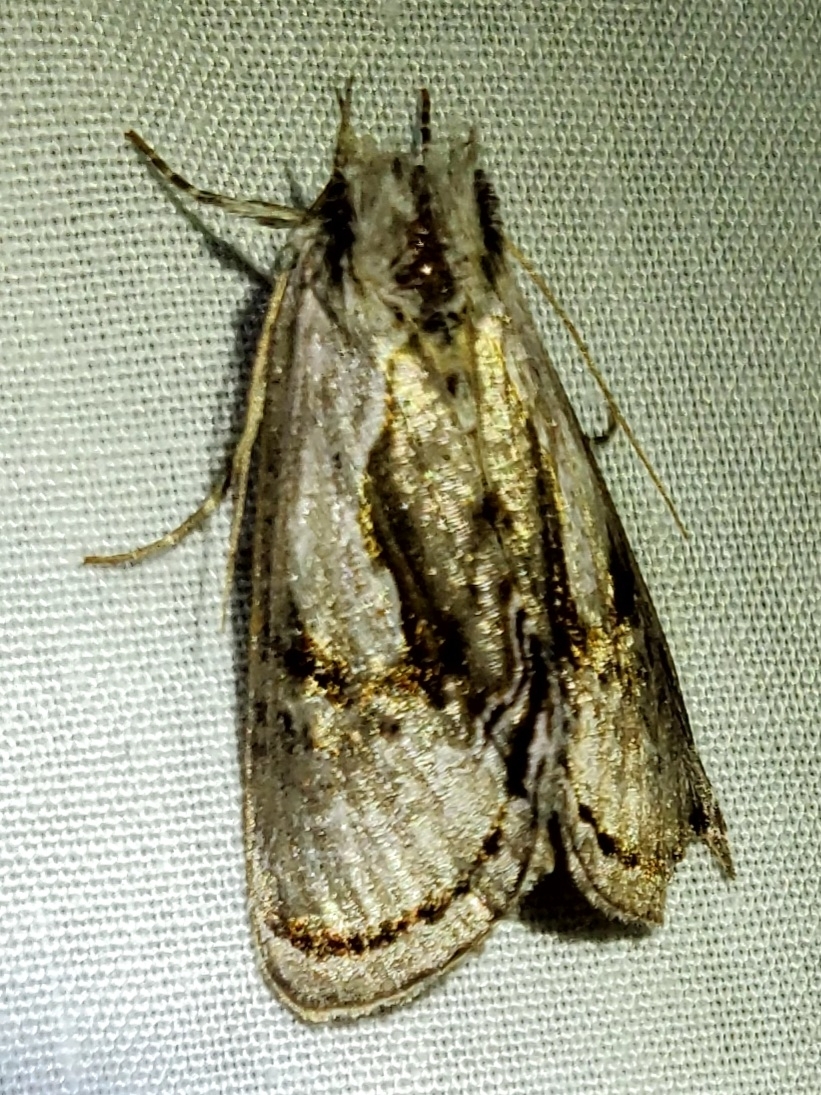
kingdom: Animalia
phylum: Arthropoda
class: Insecta
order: Lepidoptera
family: Noctuidae
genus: Chrysanympha
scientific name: Chrysanympha formosa
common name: Formosa looper moth
